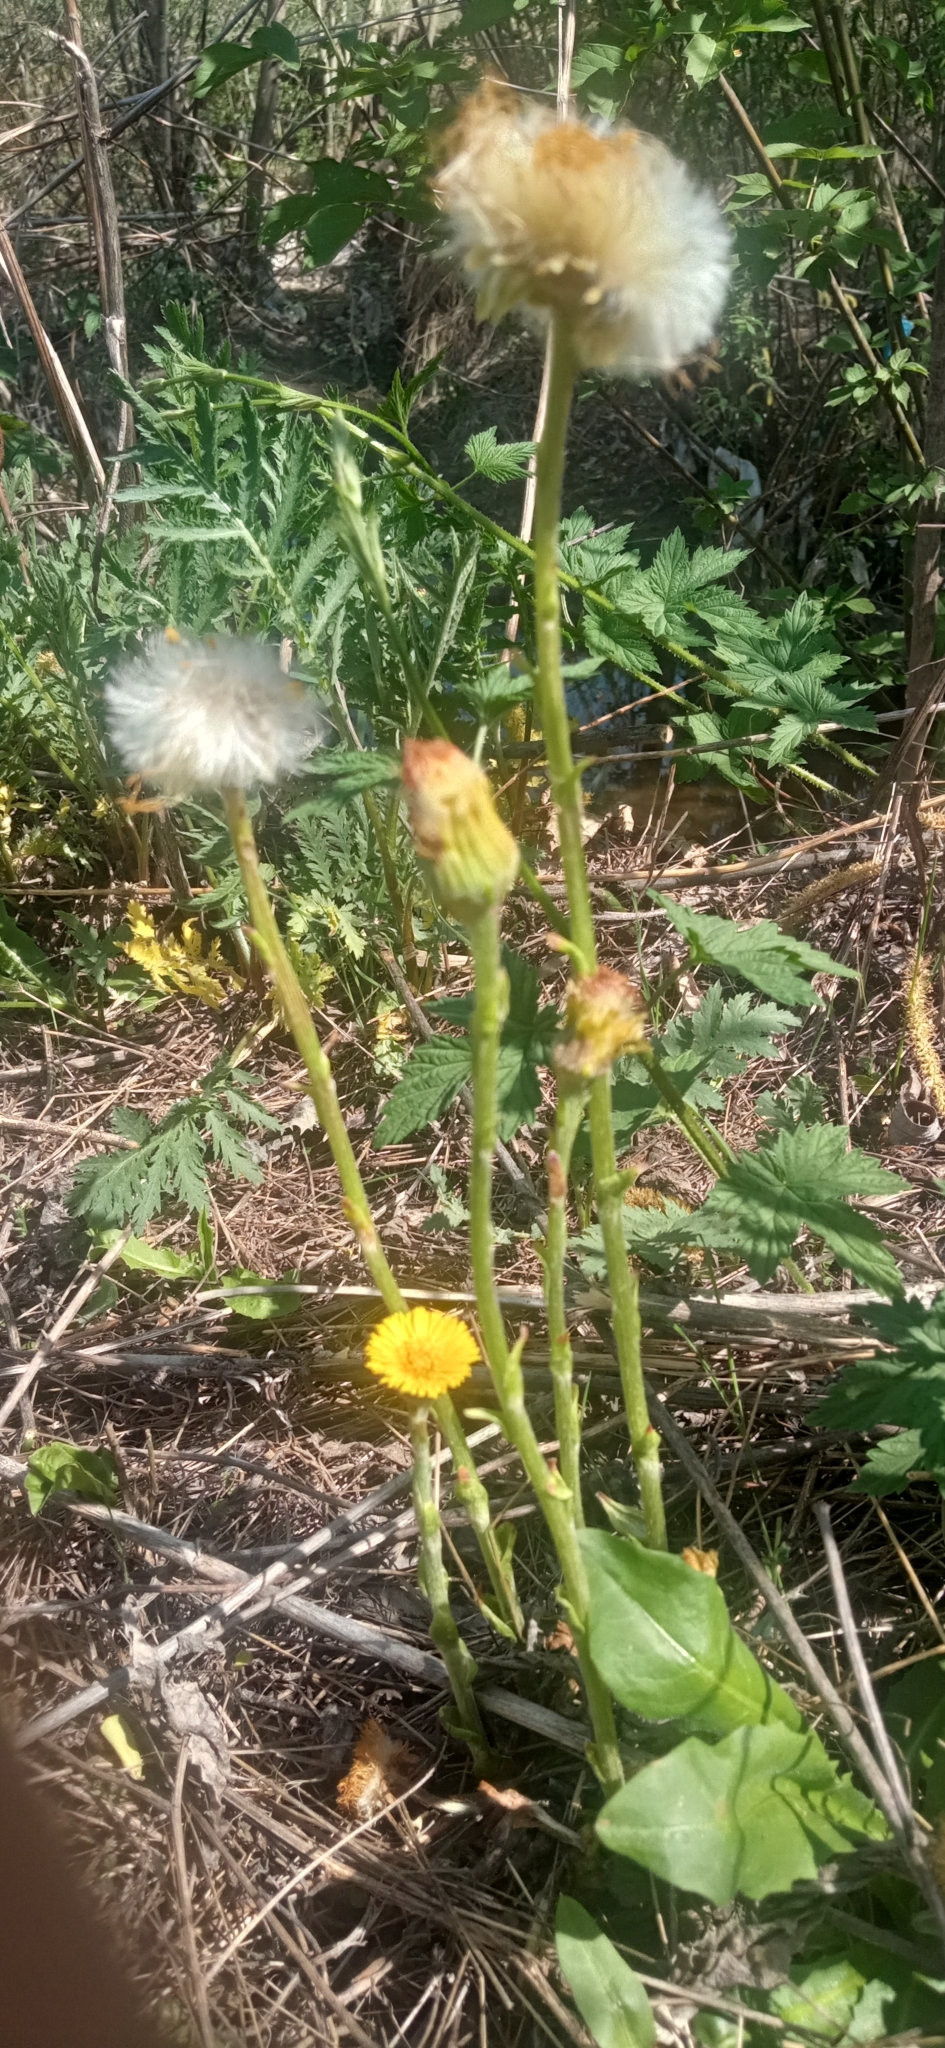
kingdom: Plantae
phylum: Tracheophyta
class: Magnoliopsida
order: Asterales
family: Asteraceae
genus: Tussilago
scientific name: Tussilago farfara
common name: Coltsfoot
